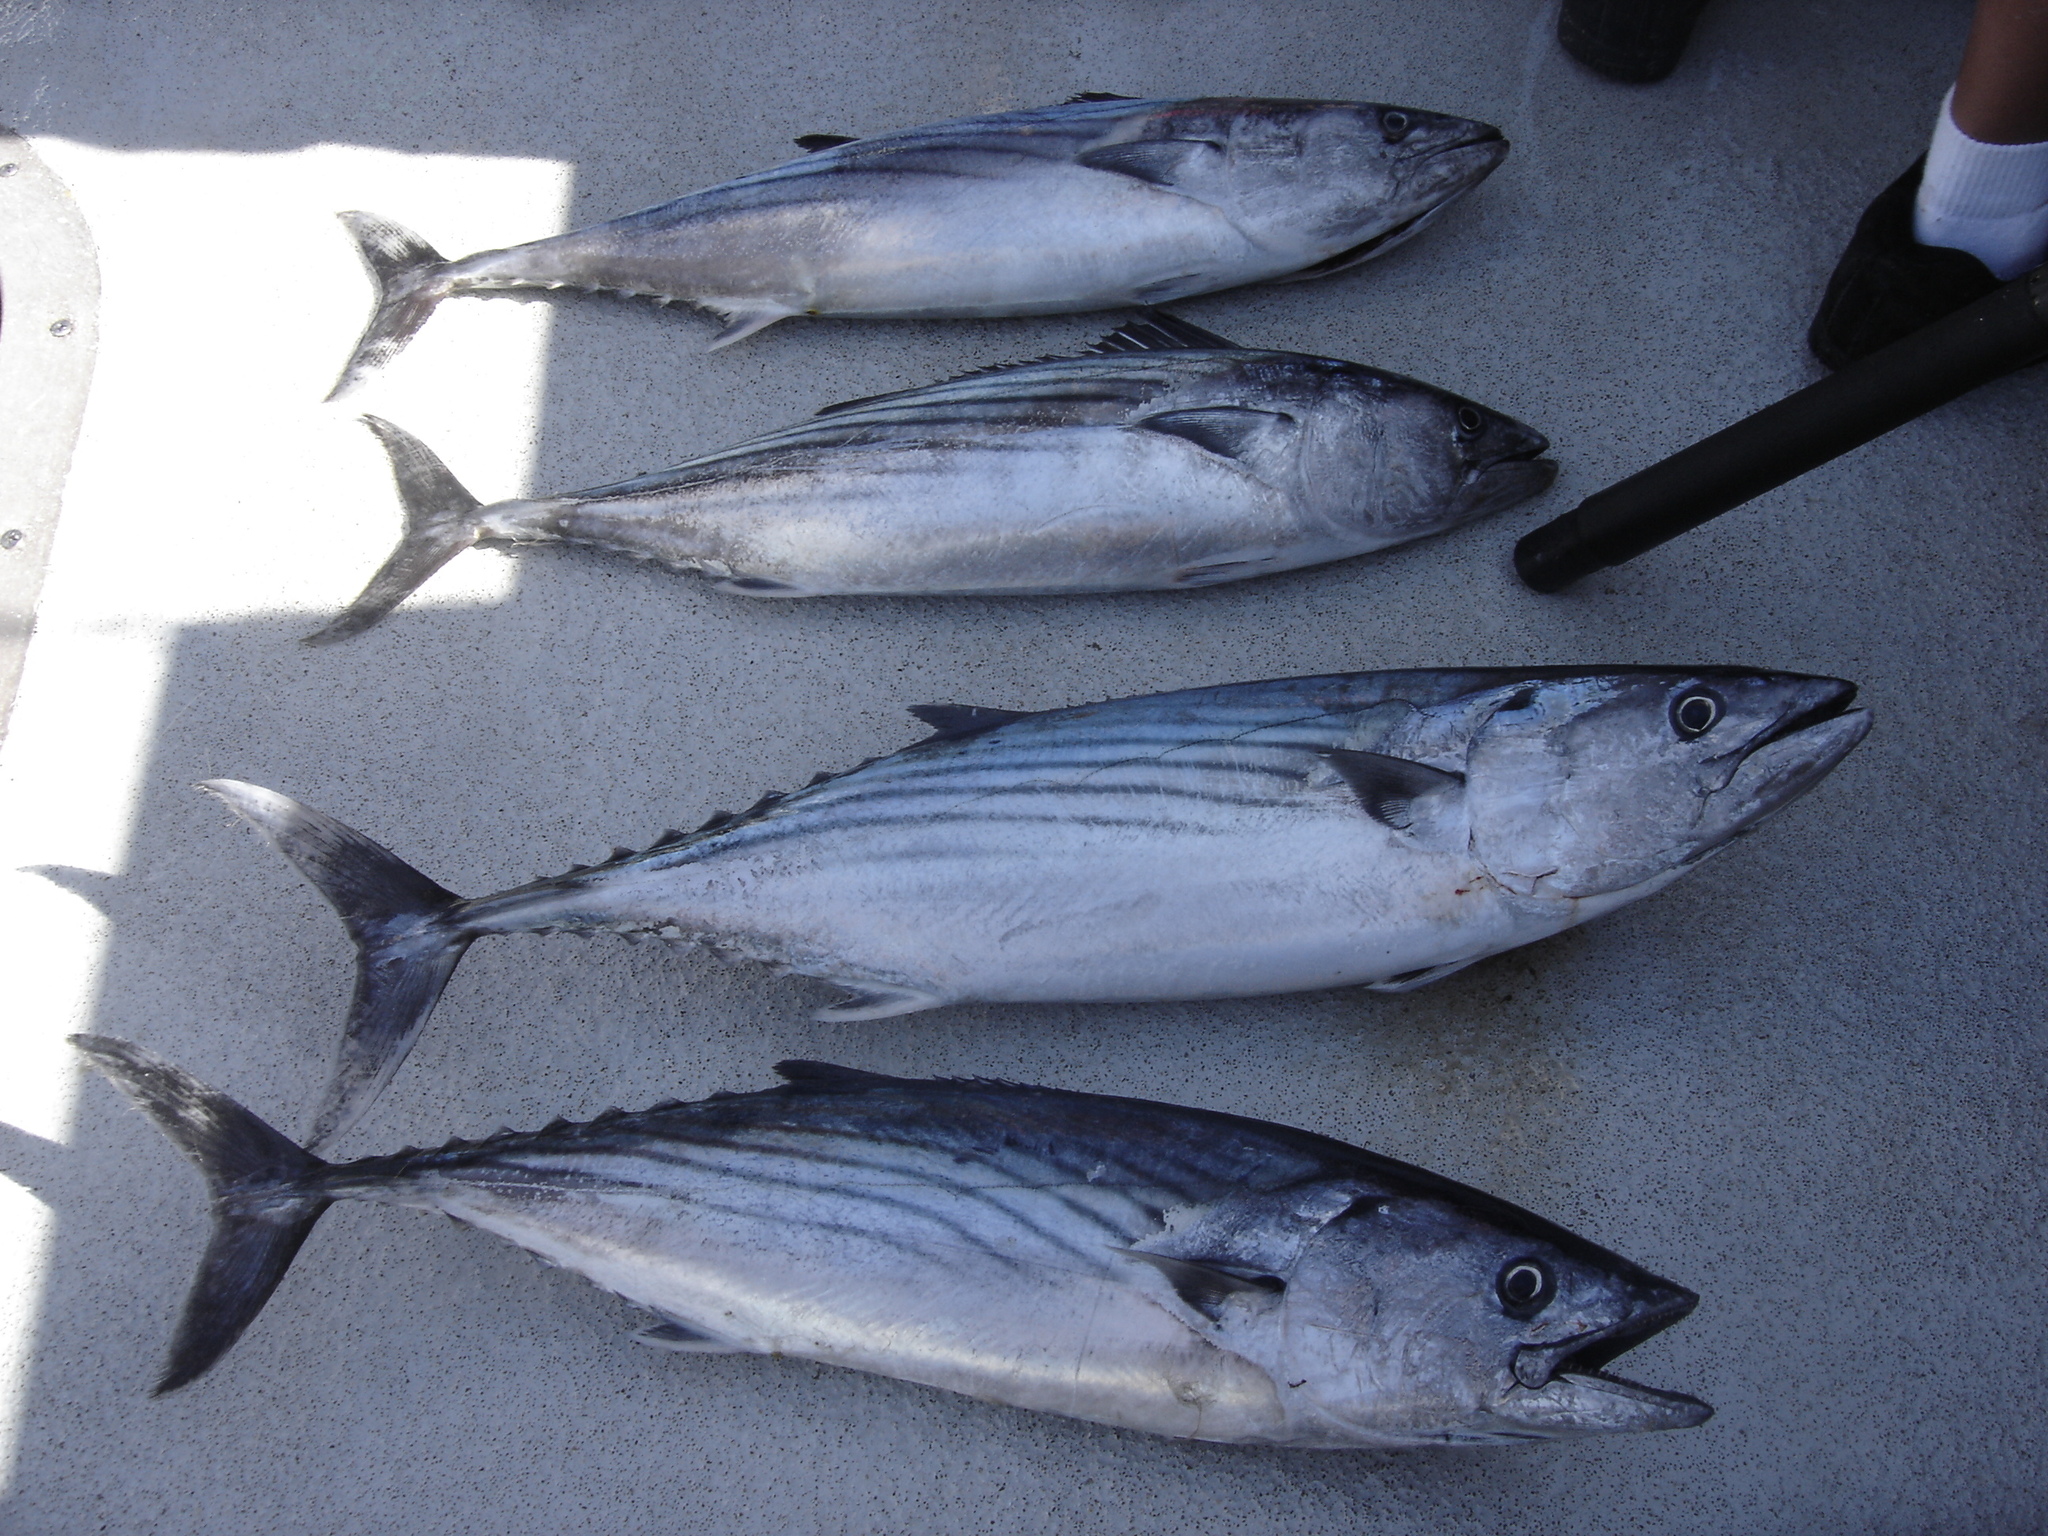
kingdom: Animalia
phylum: Chordata
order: Perciformes
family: Scombridae
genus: Sarda
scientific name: Sarda chiliensis
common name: Pacific bonito
